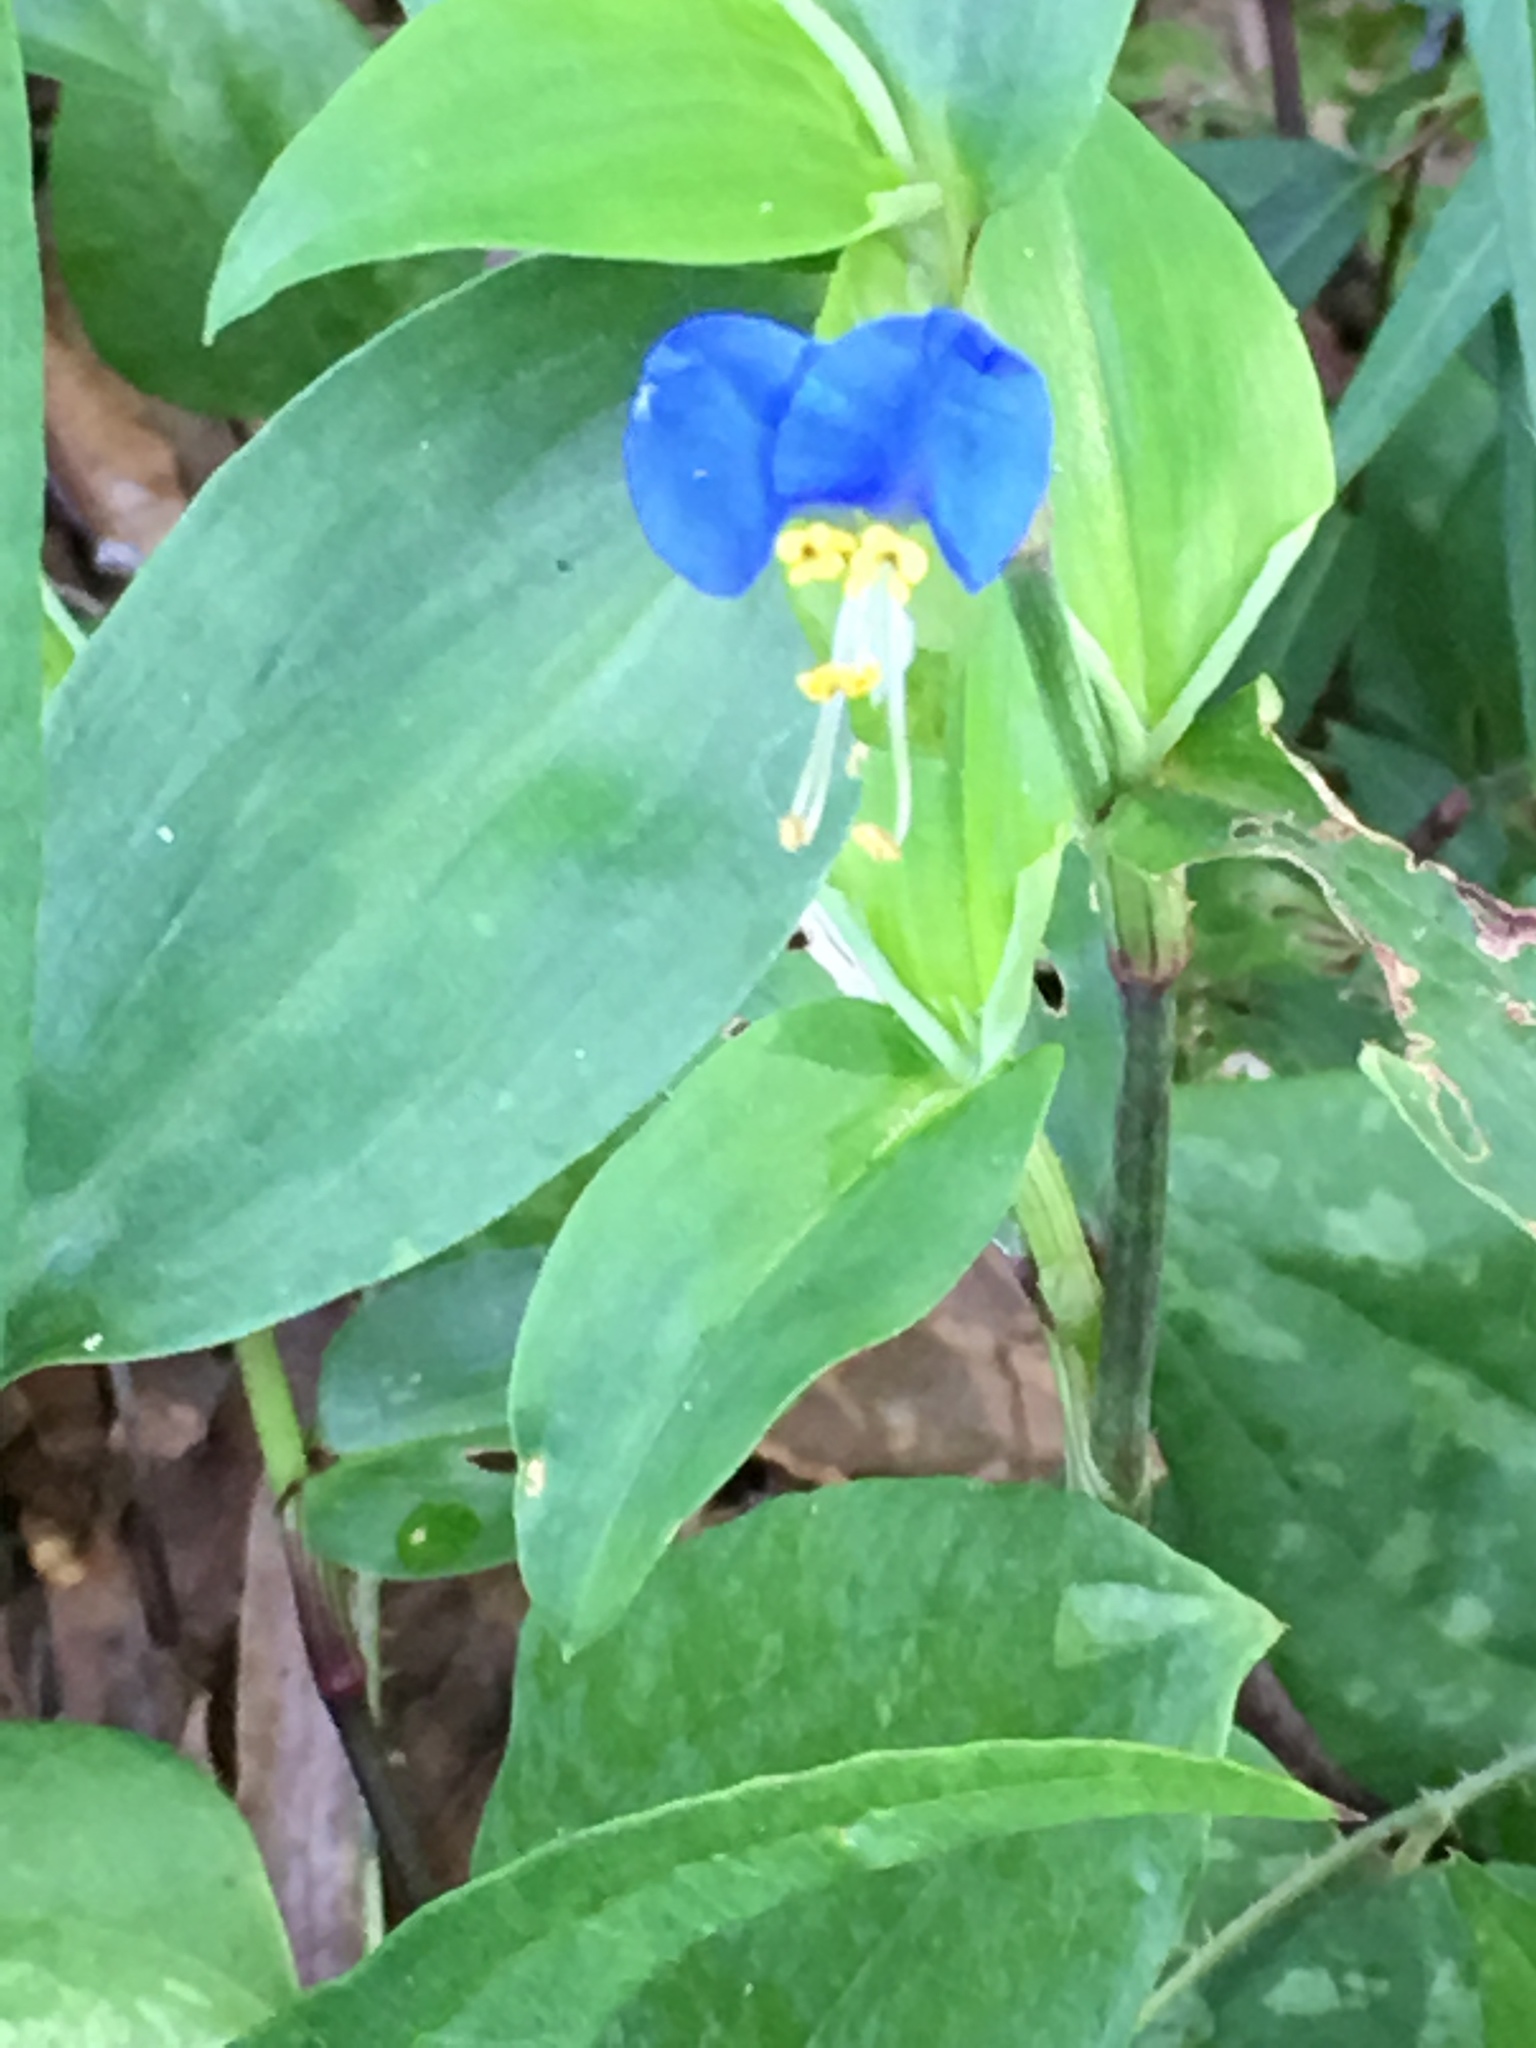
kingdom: Plantae
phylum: Tracheophyta
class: Liliopsida
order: Commelinales
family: Commelinaceae
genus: Commelina
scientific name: Commelina communis
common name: Asiatic dayflower
